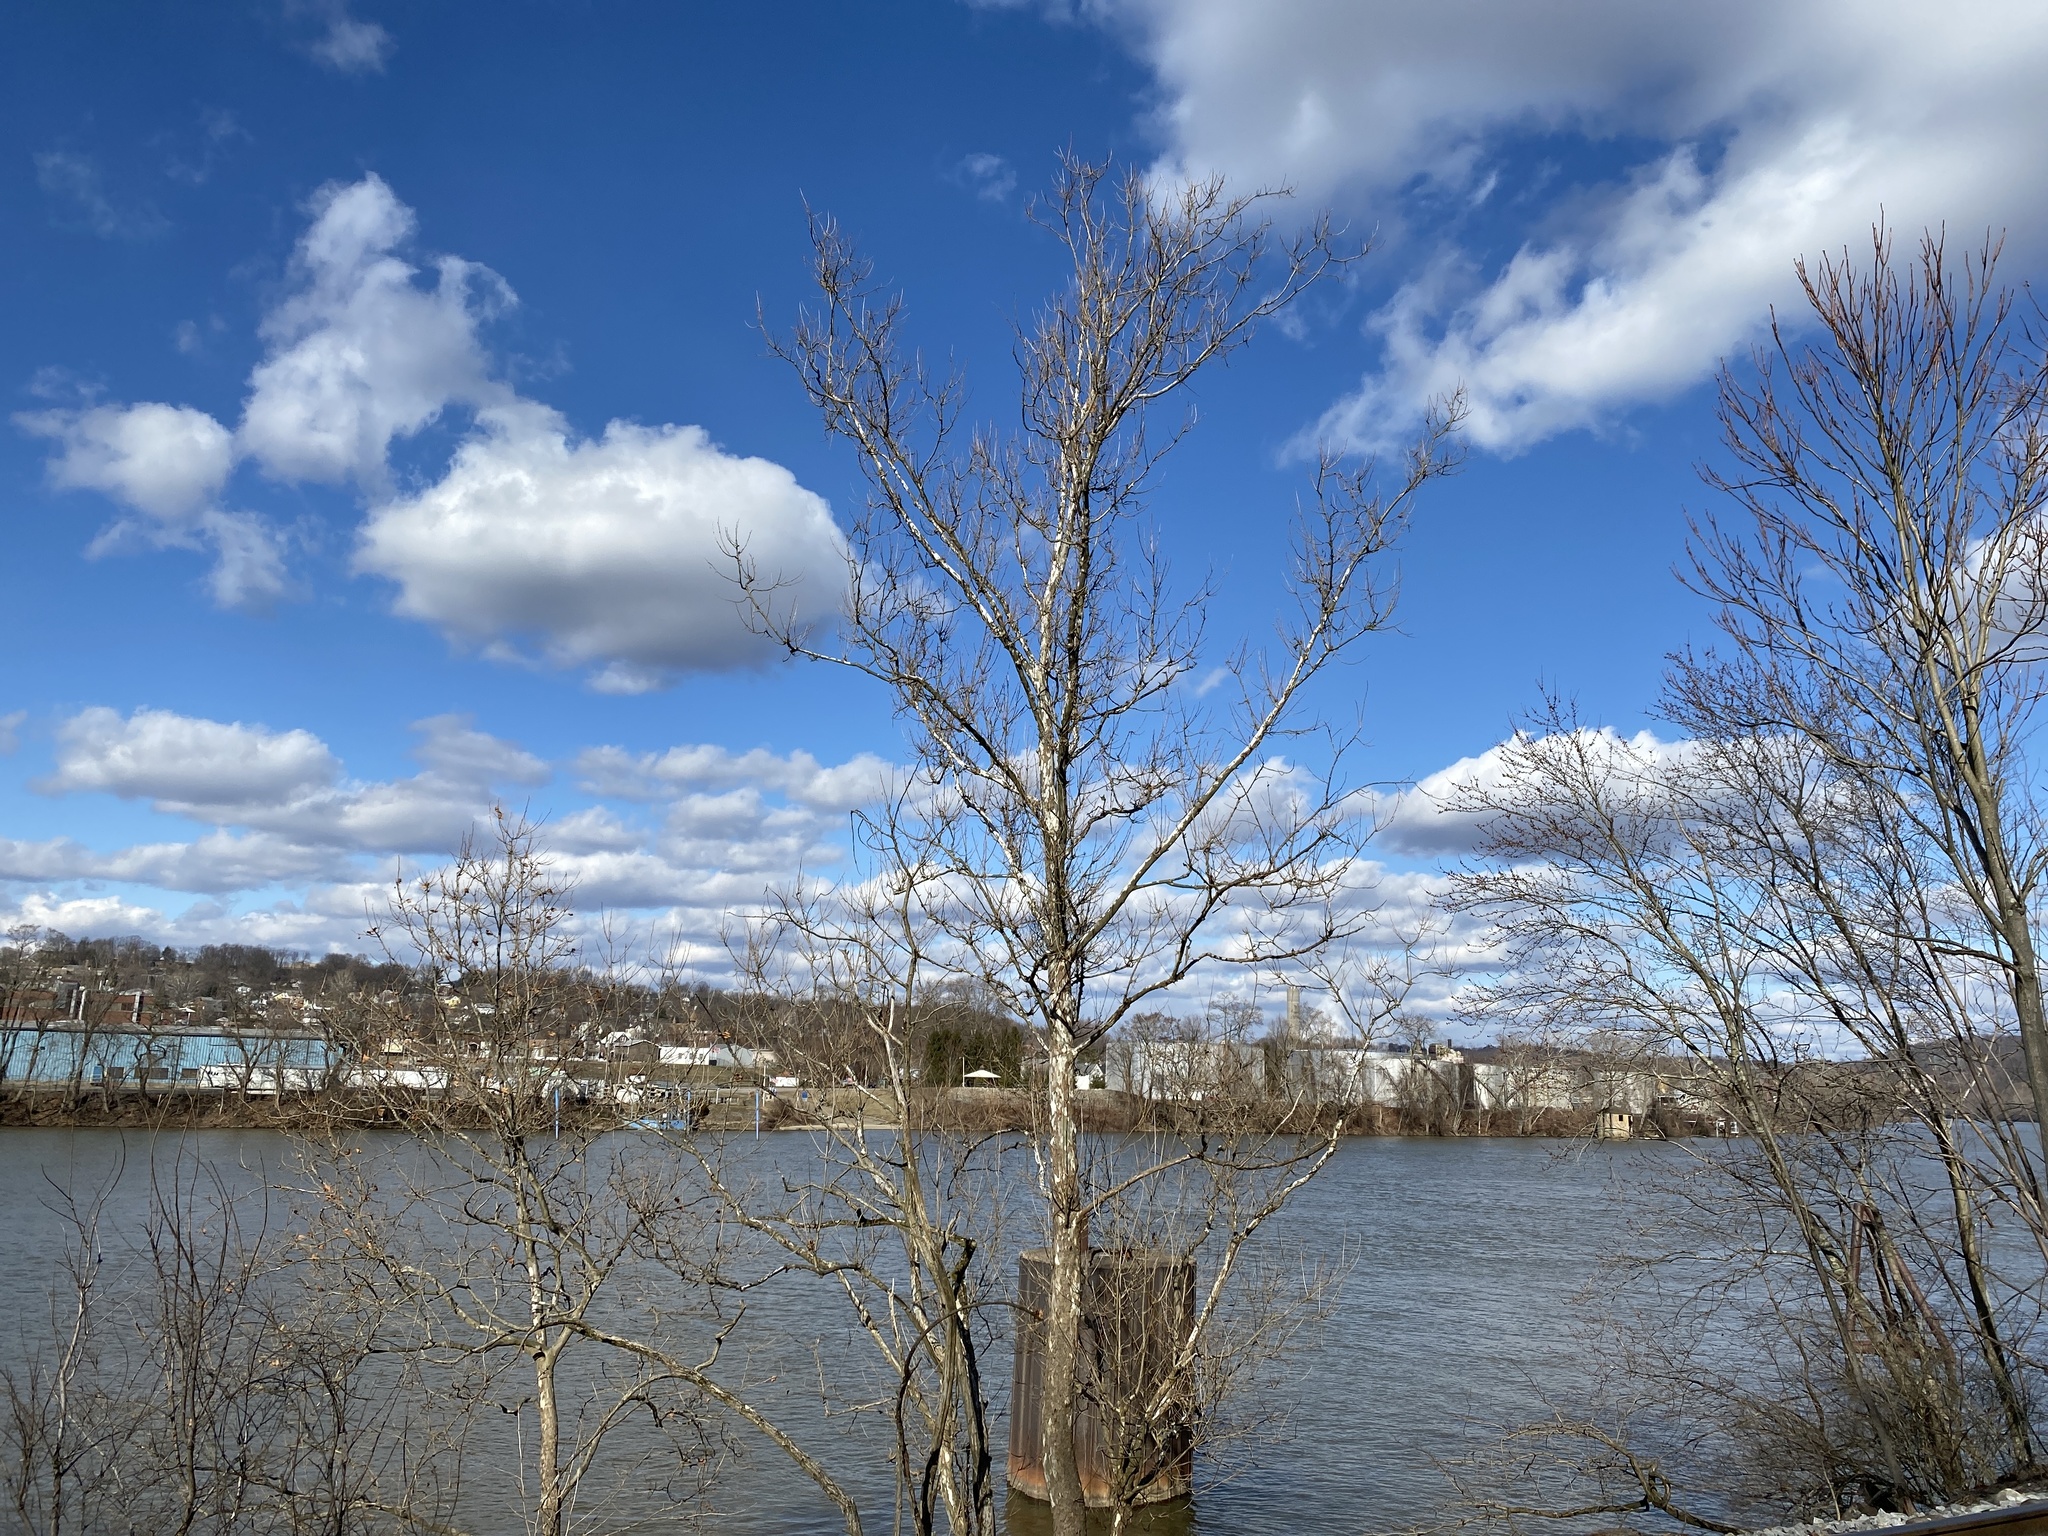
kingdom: Plantae
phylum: Tracheophyta
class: Magnoliopsida
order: Proteales
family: Platanaceae
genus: Platanus
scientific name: Platanus occidentalis
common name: American sycamore
